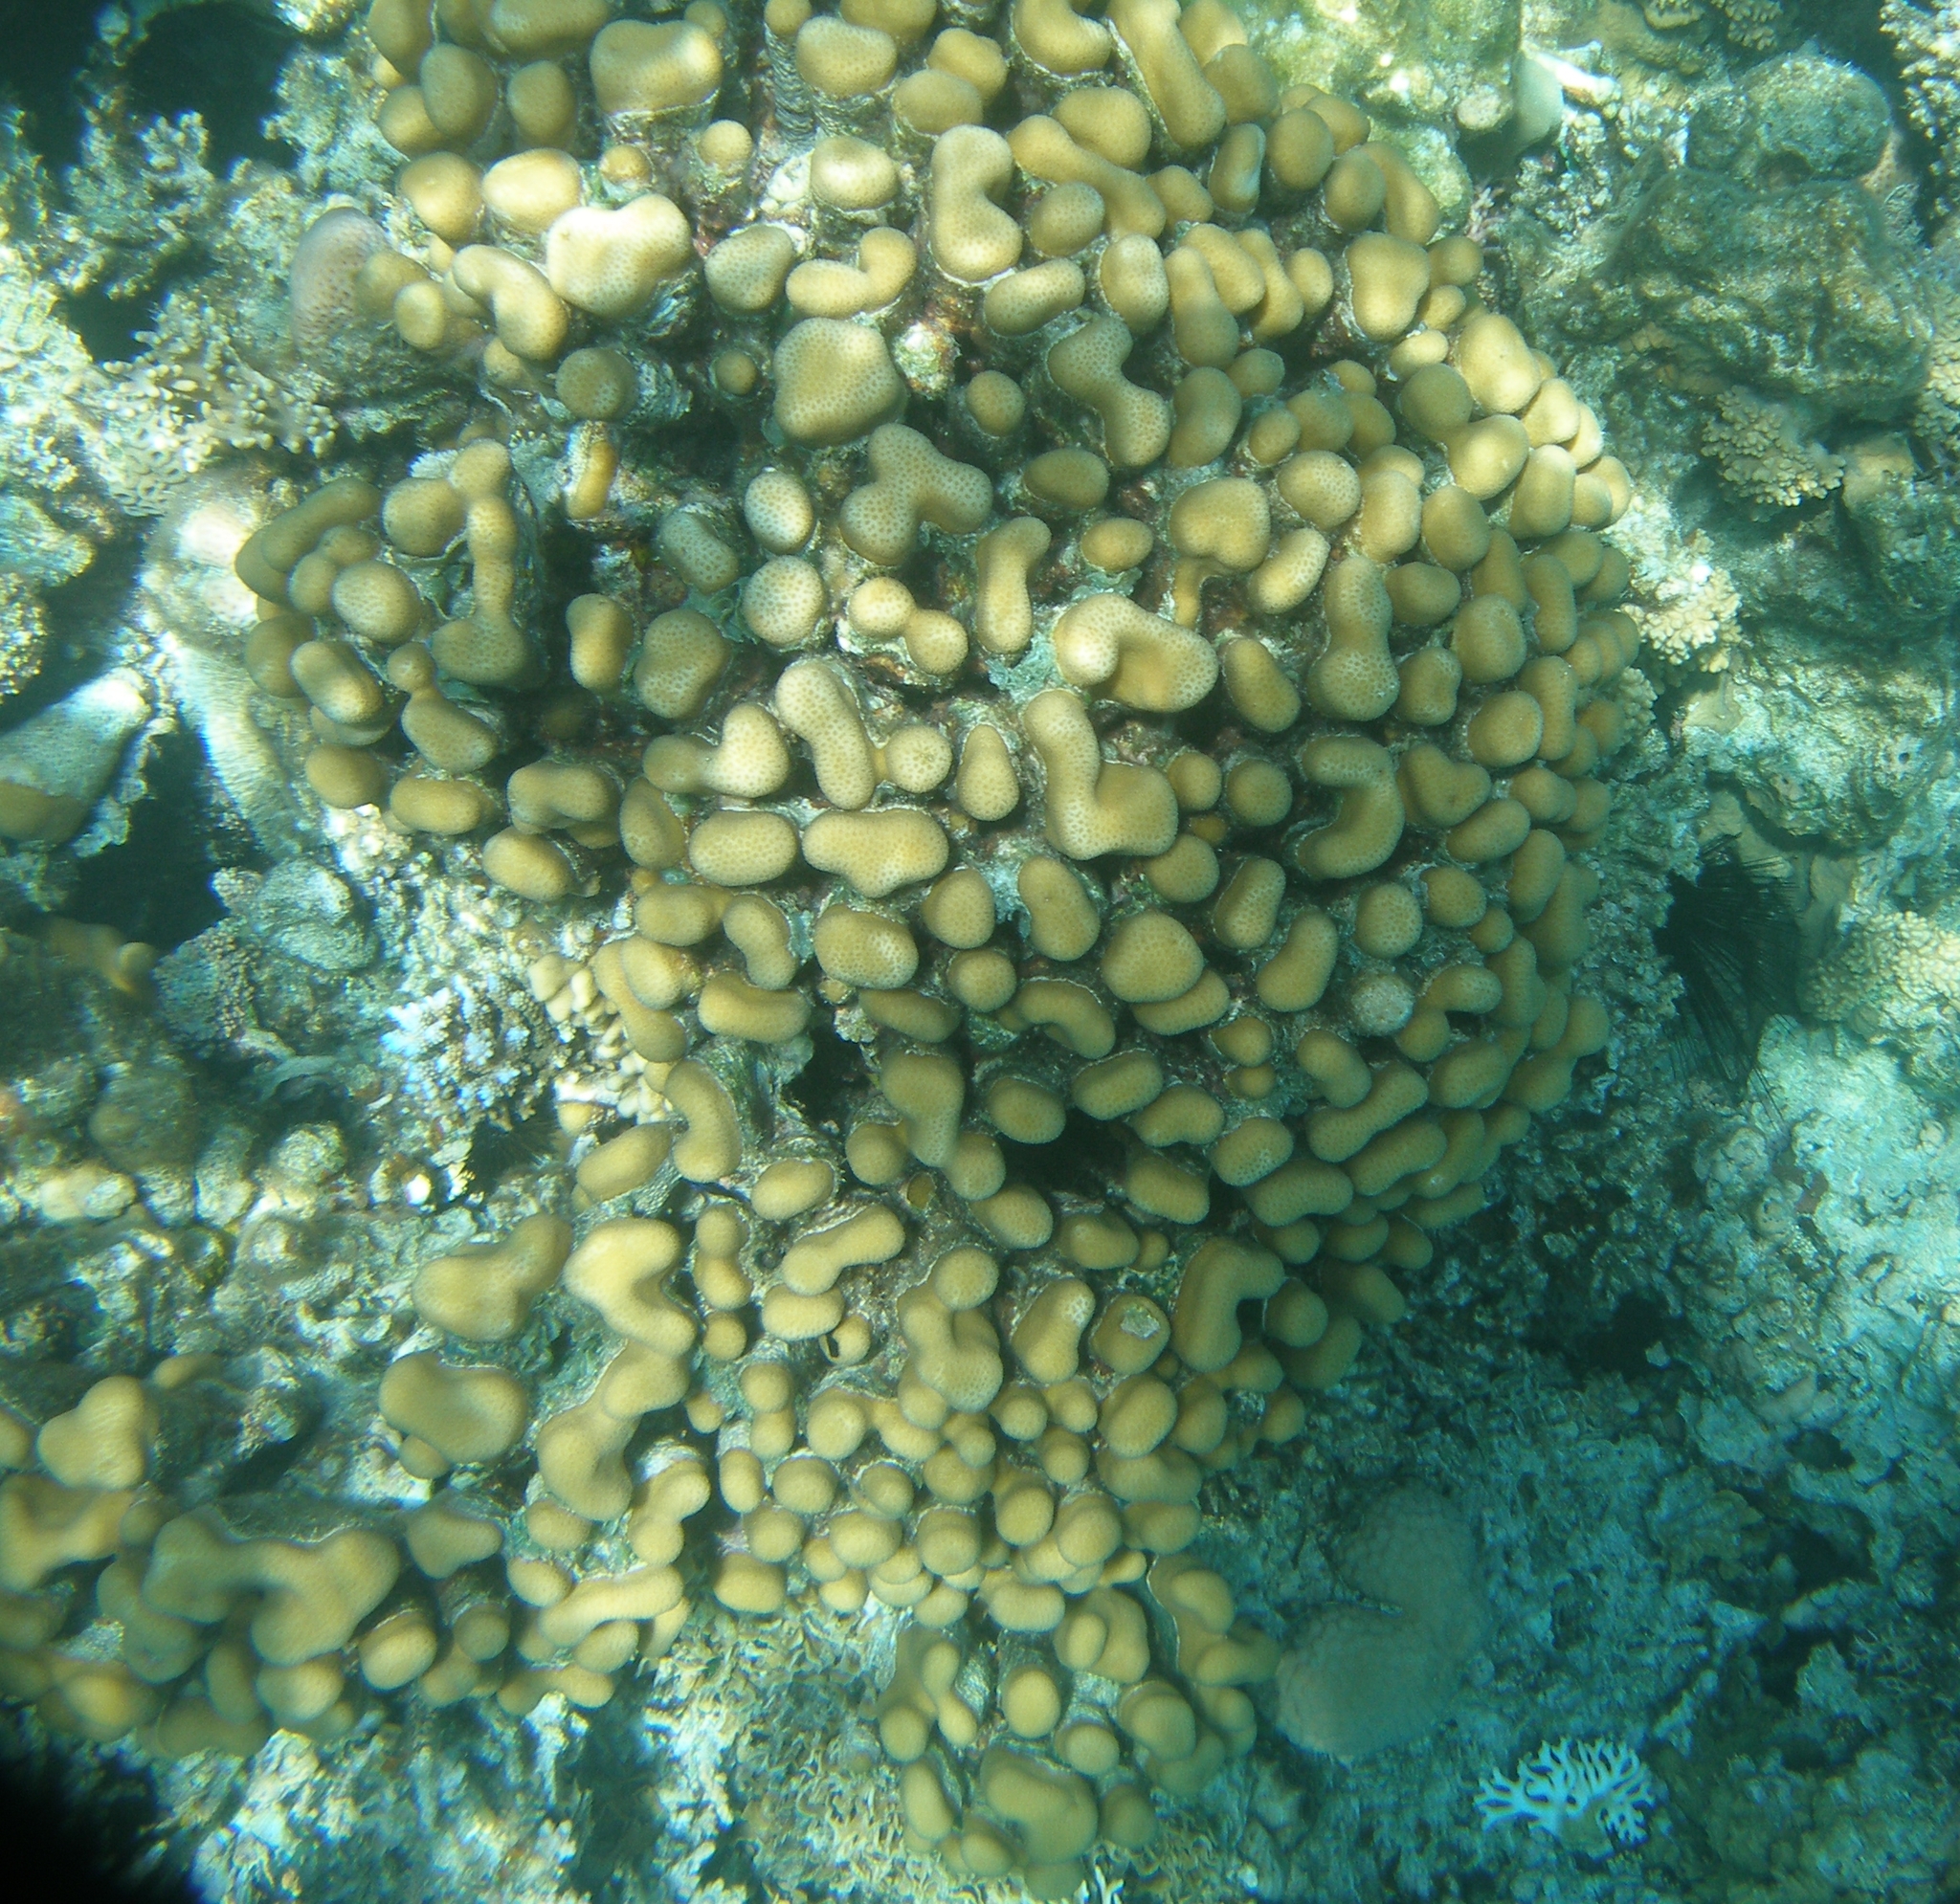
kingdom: Animalia
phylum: Cnidaria
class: Anthozoa
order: Scleractinia
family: Merulinidae
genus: Goniastrea
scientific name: Goniastrea stelligera
